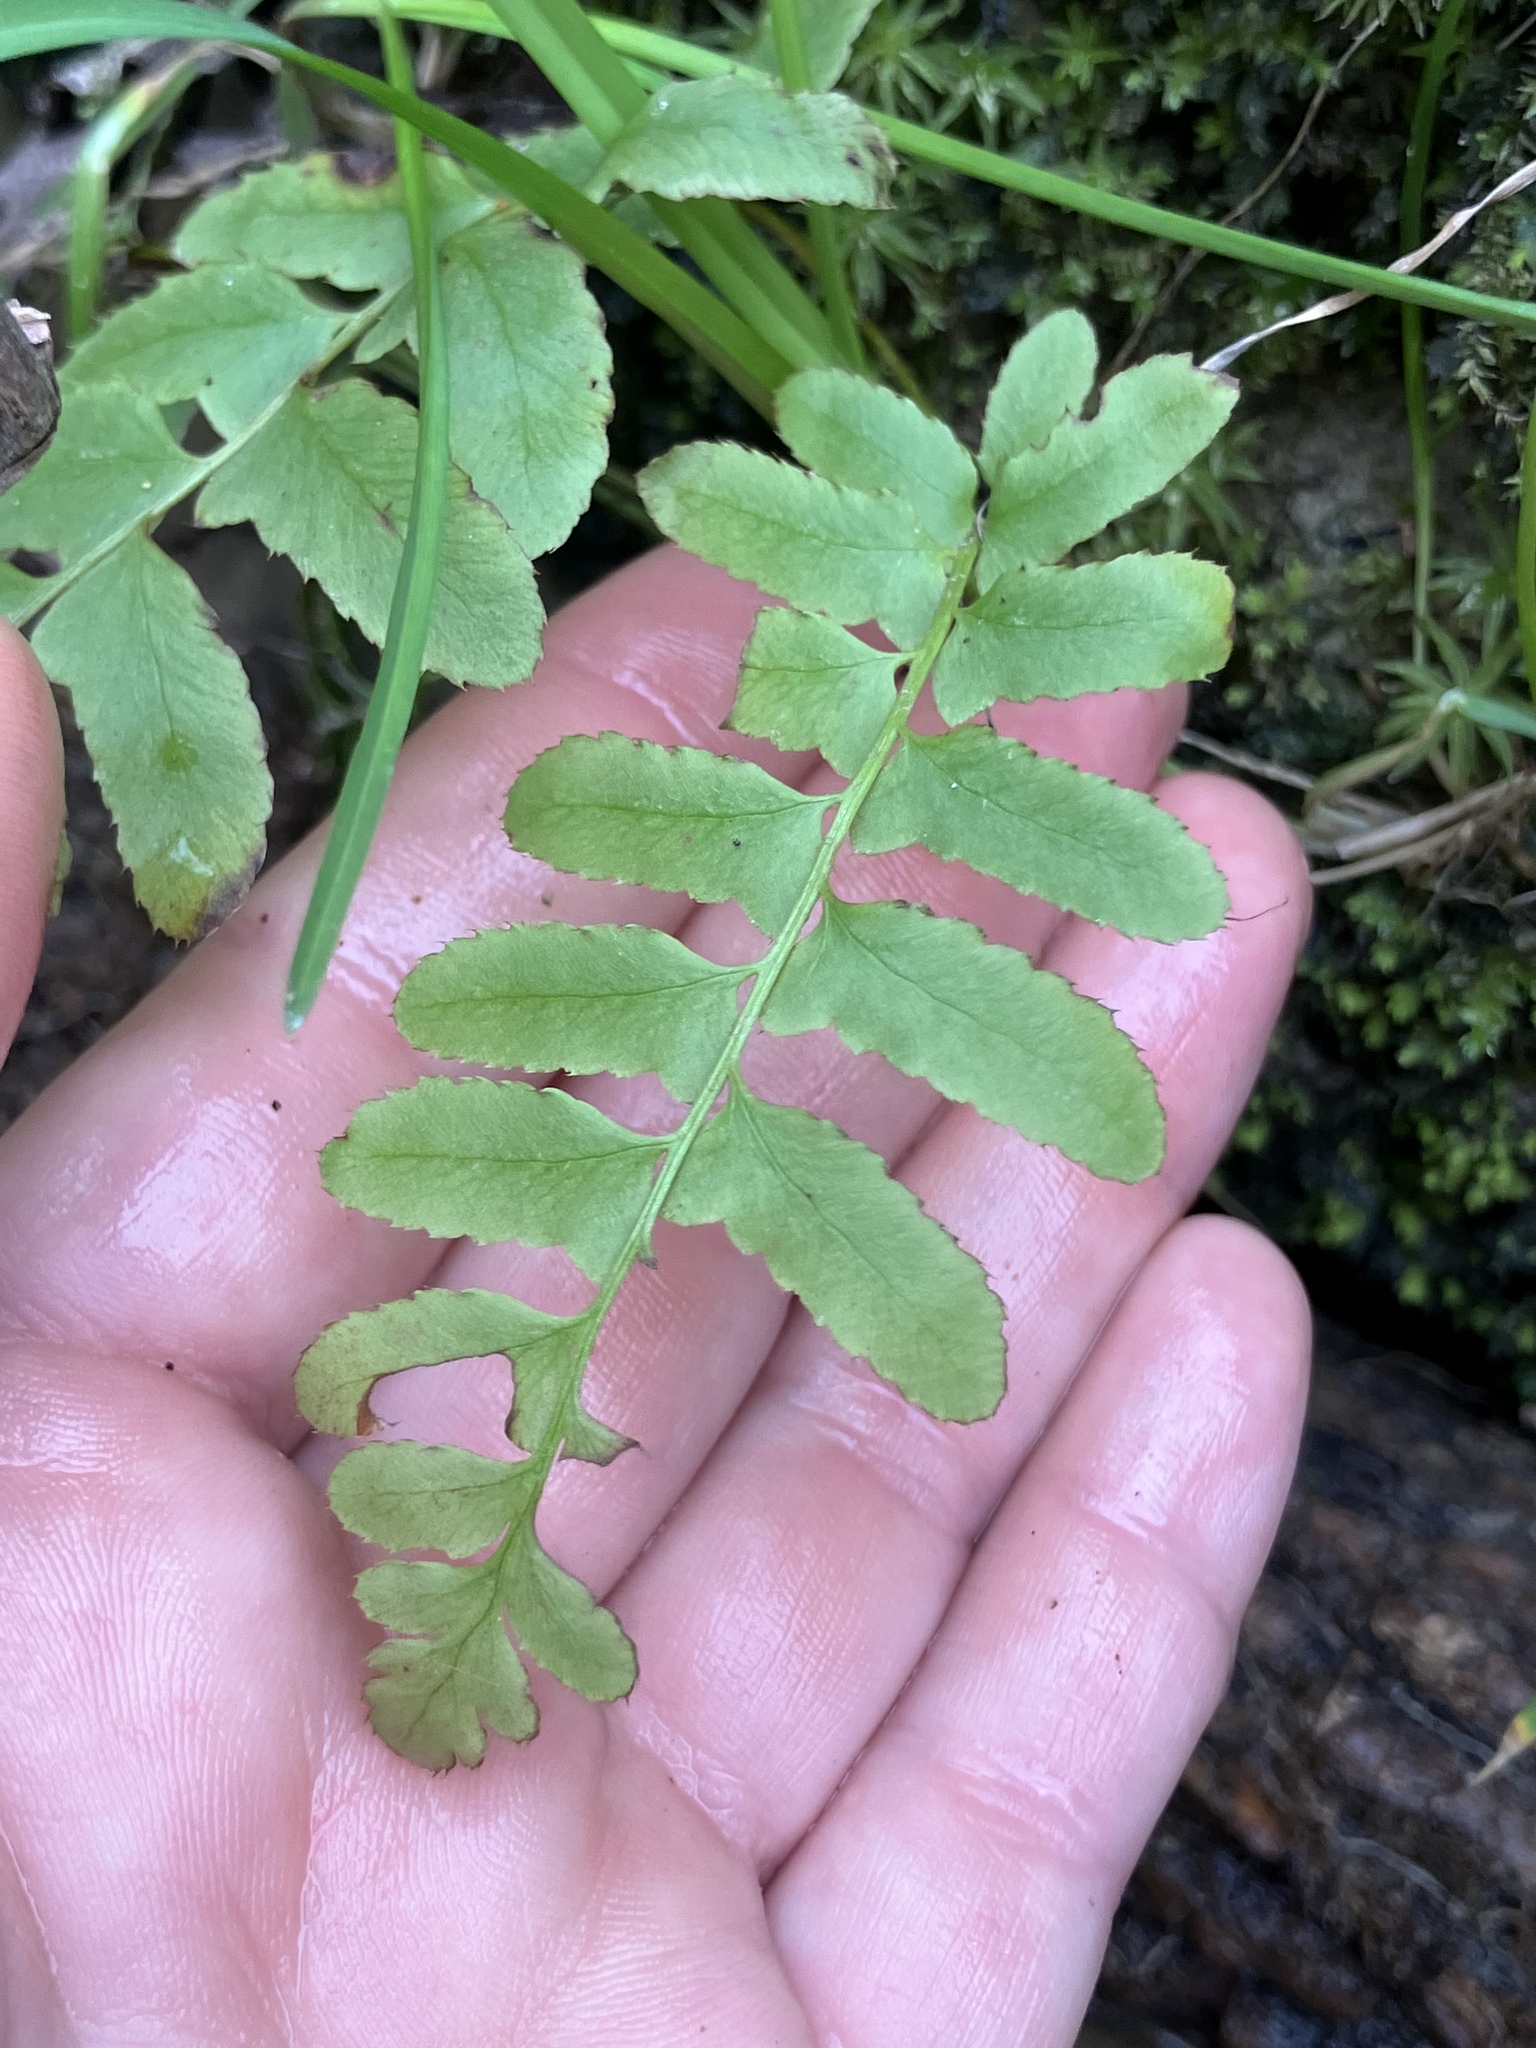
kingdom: Plantae
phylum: Tracheophyta
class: Polypodiopsida
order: Polypodiales
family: Dryopteridaceae
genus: Polystichum
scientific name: Polystichum acrostichoides
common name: Christmas fern
